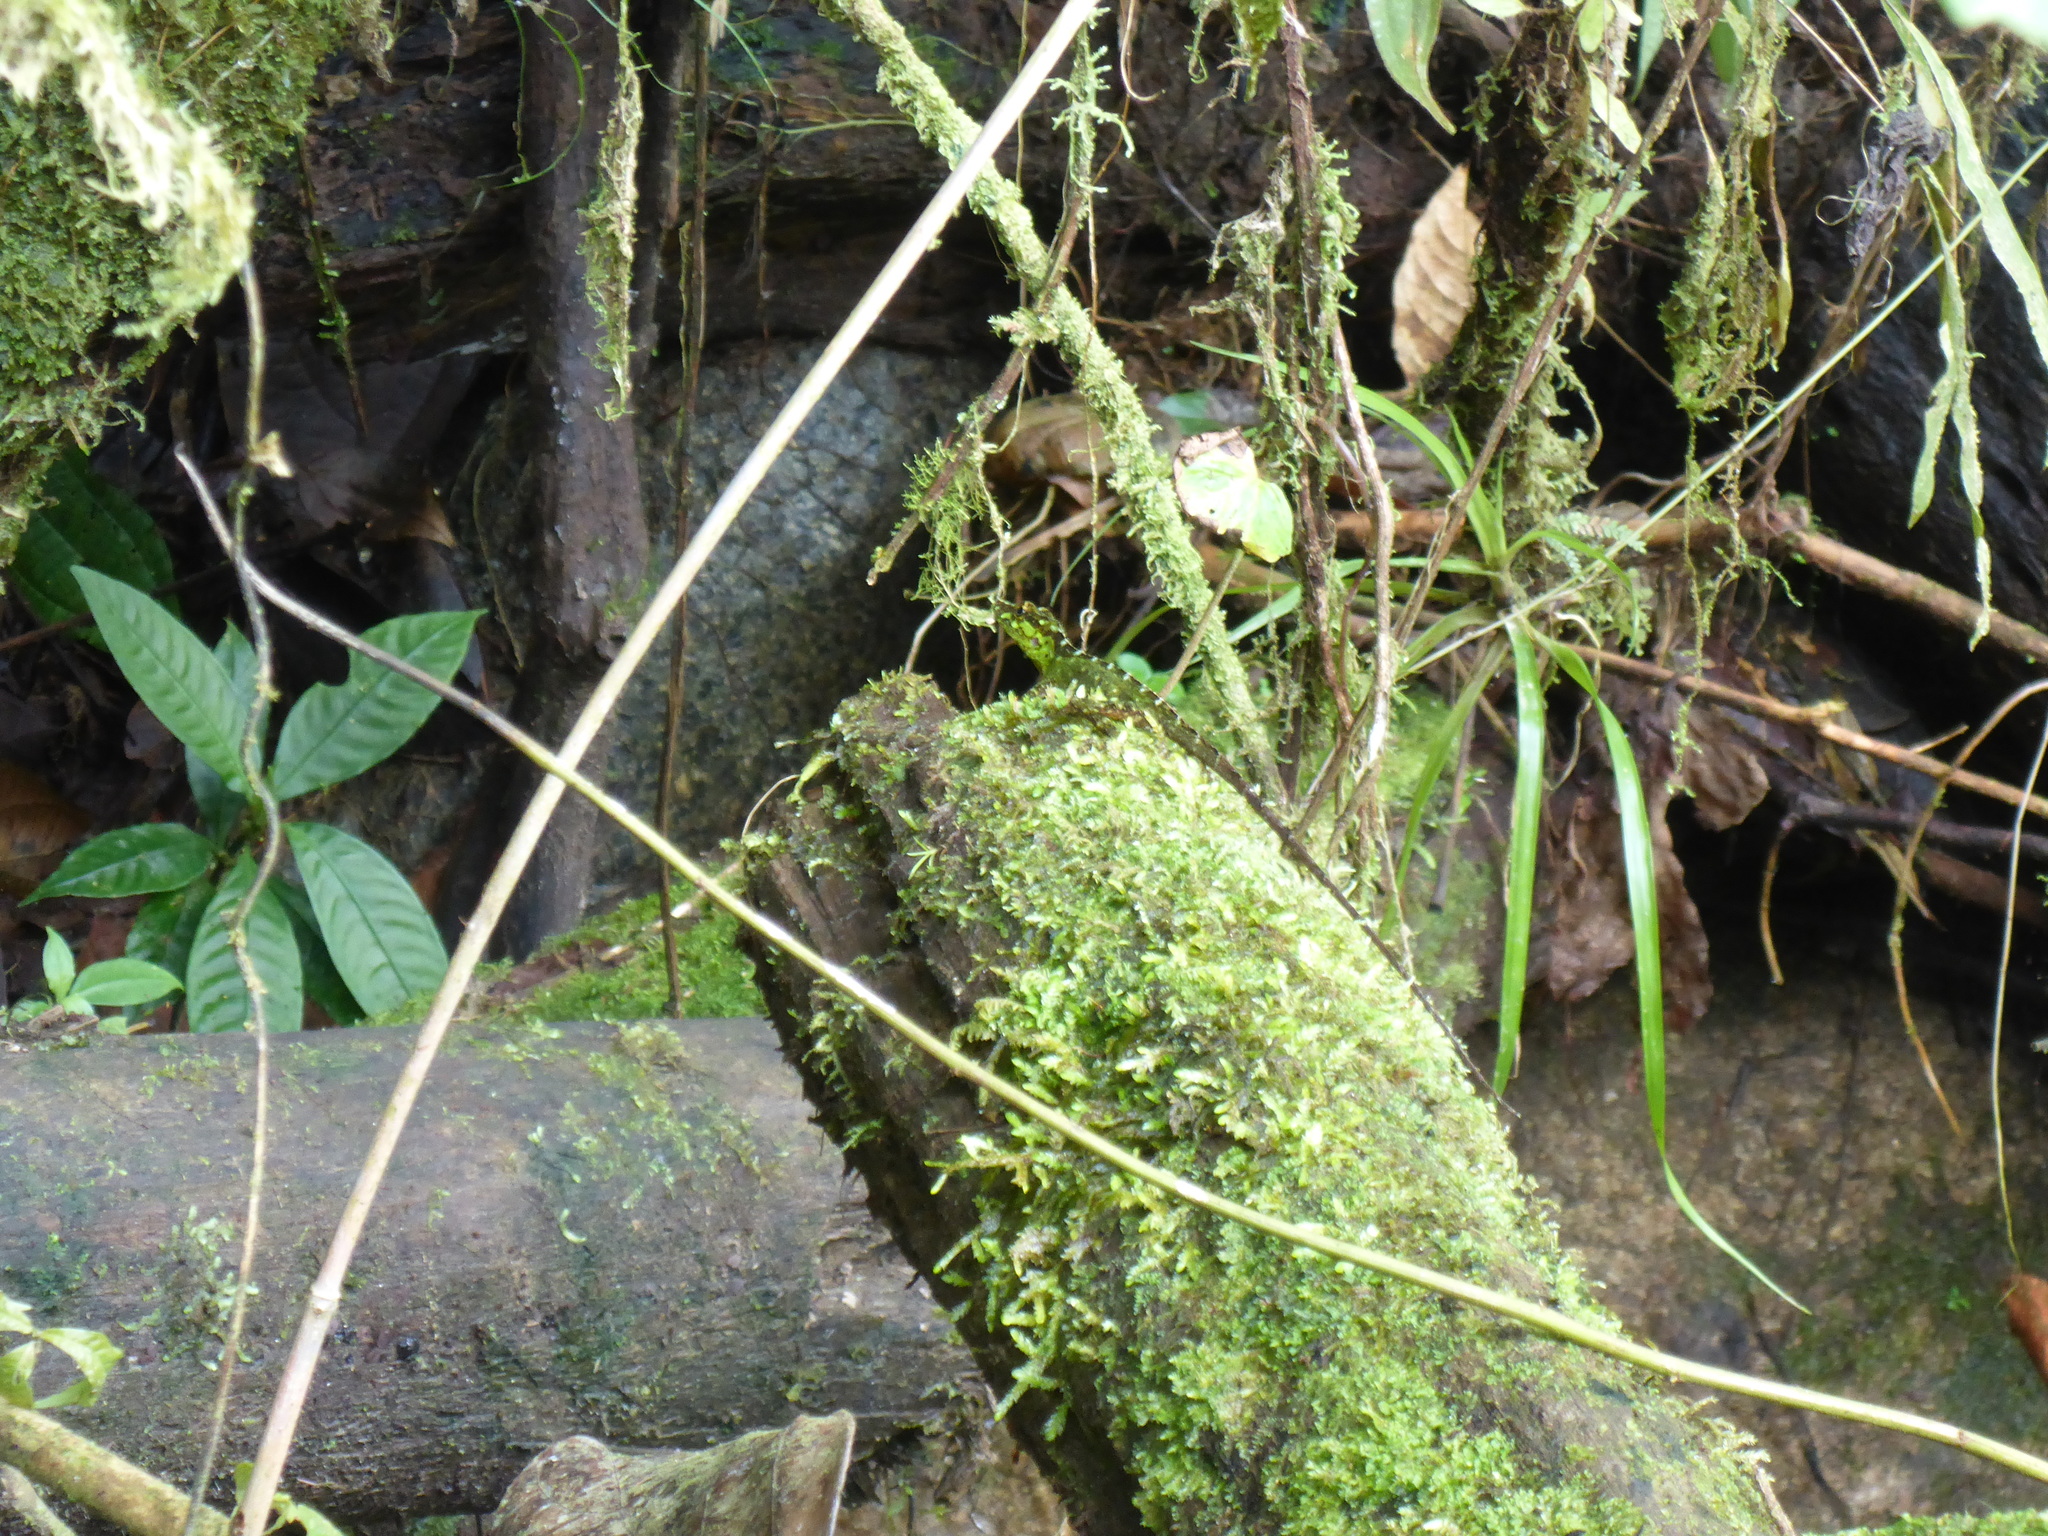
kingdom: Animalia
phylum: Chordata
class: Squamata
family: Dactyloidae
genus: Anolis
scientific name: Anolis fitchi
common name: Fitch's anole
